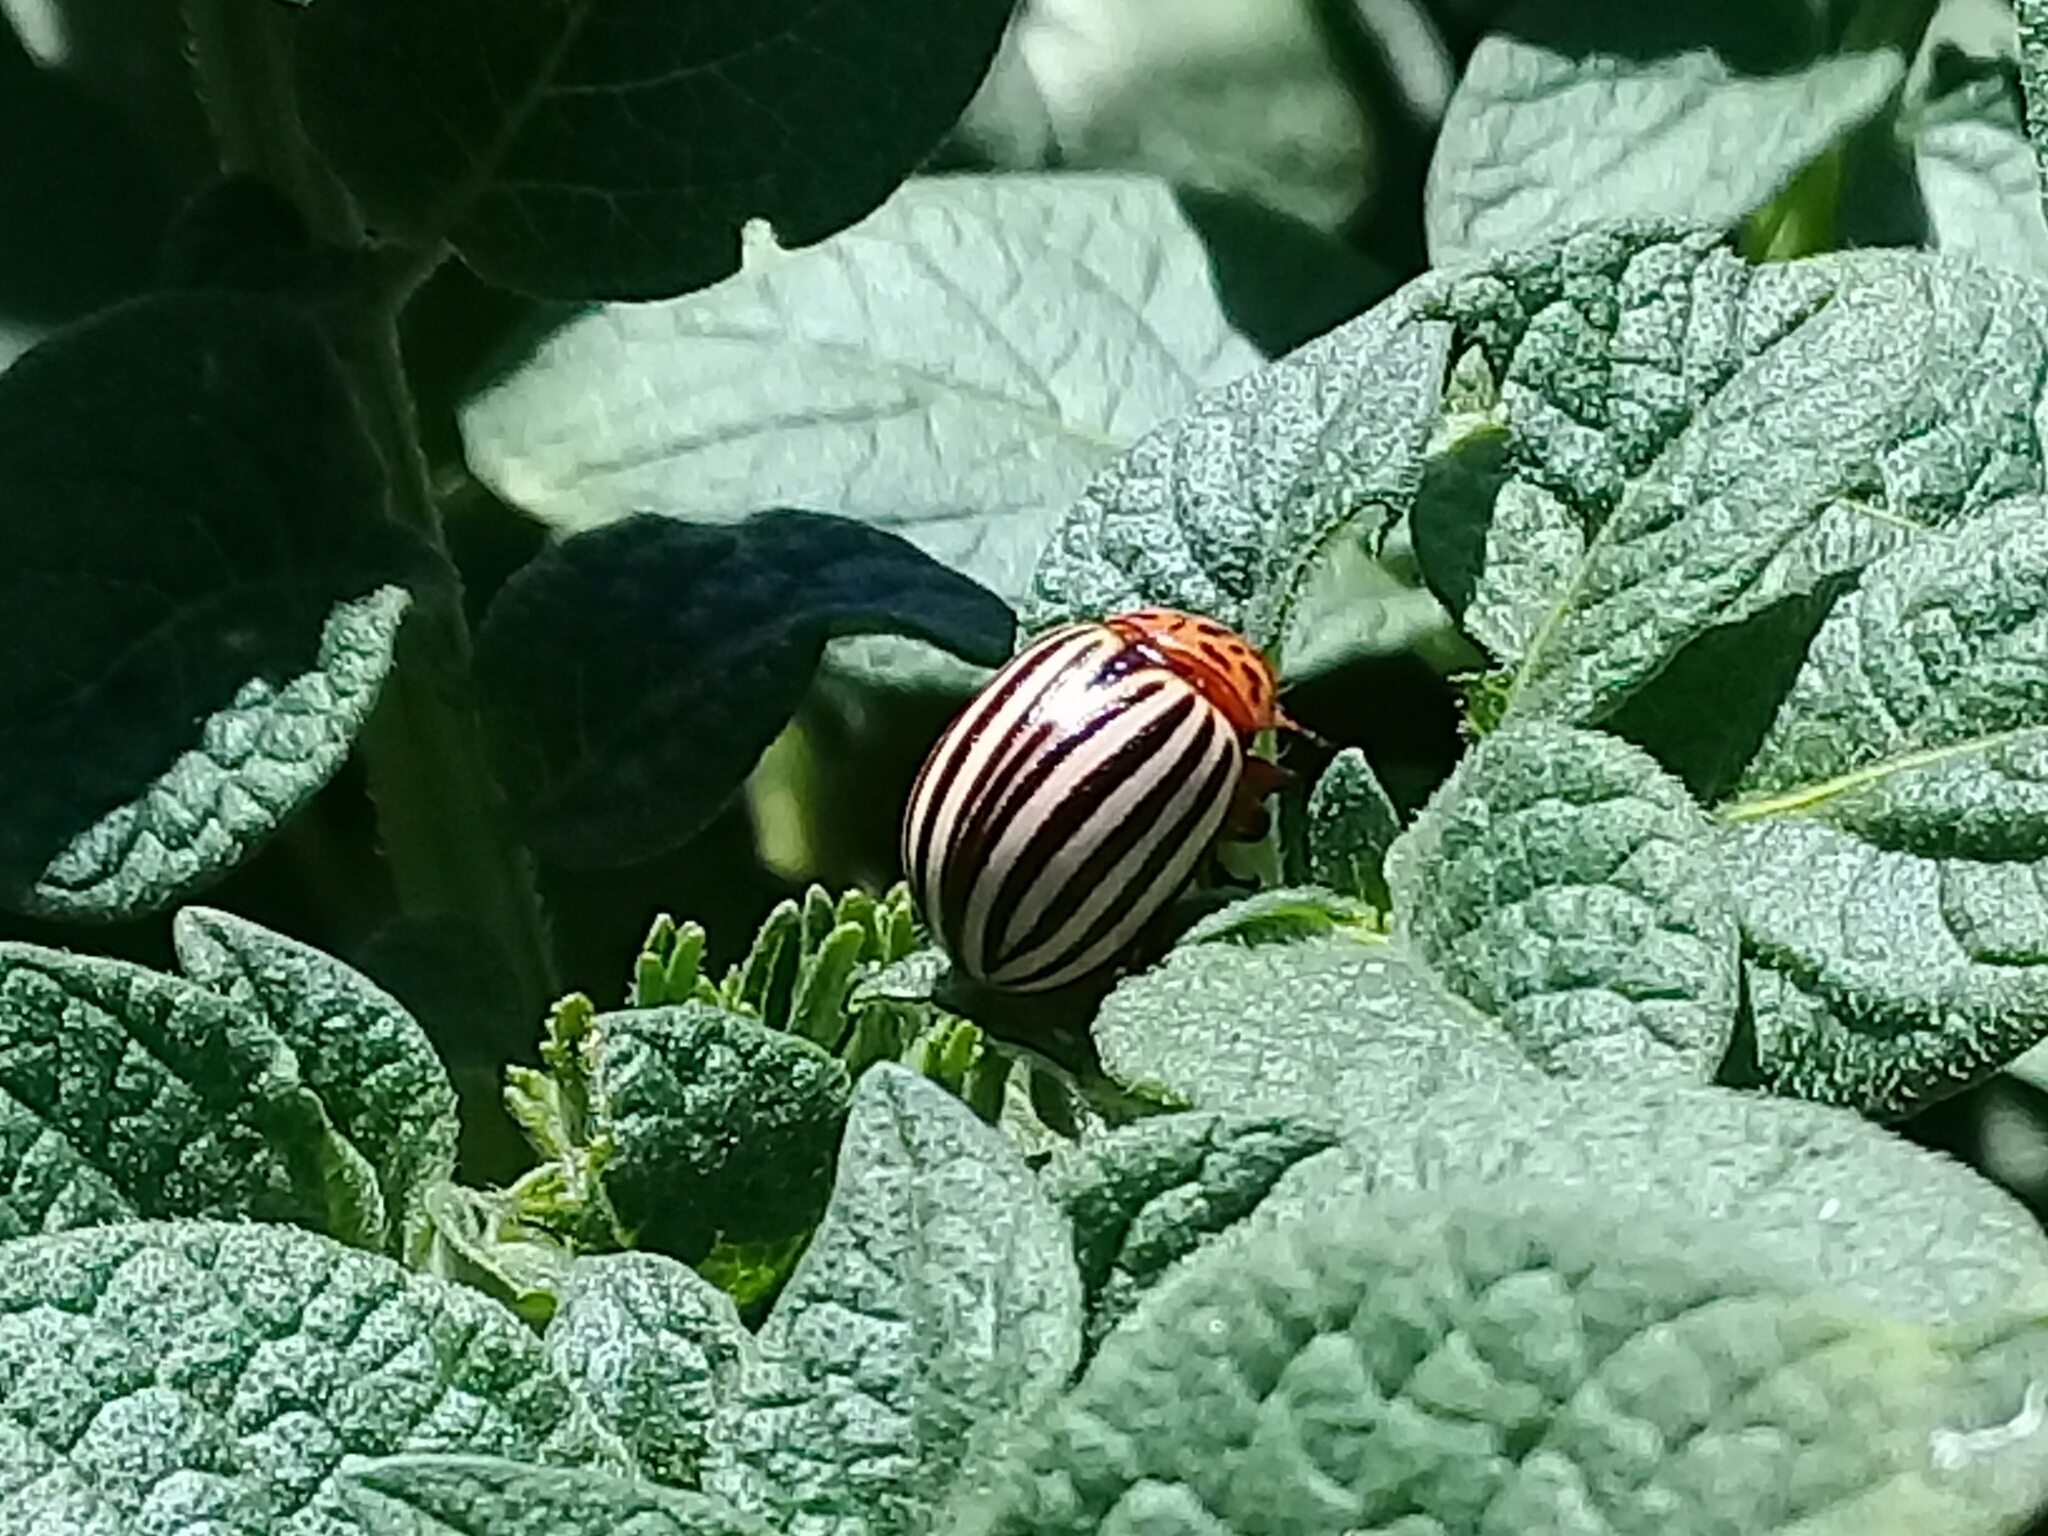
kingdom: Animalia
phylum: Arthropoda
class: Insecta
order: Coleoptera
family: Chrysomelidae
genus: Leptinotarsa
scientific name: Leptinotarsa decemlineata
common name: Colorado potato beetle
